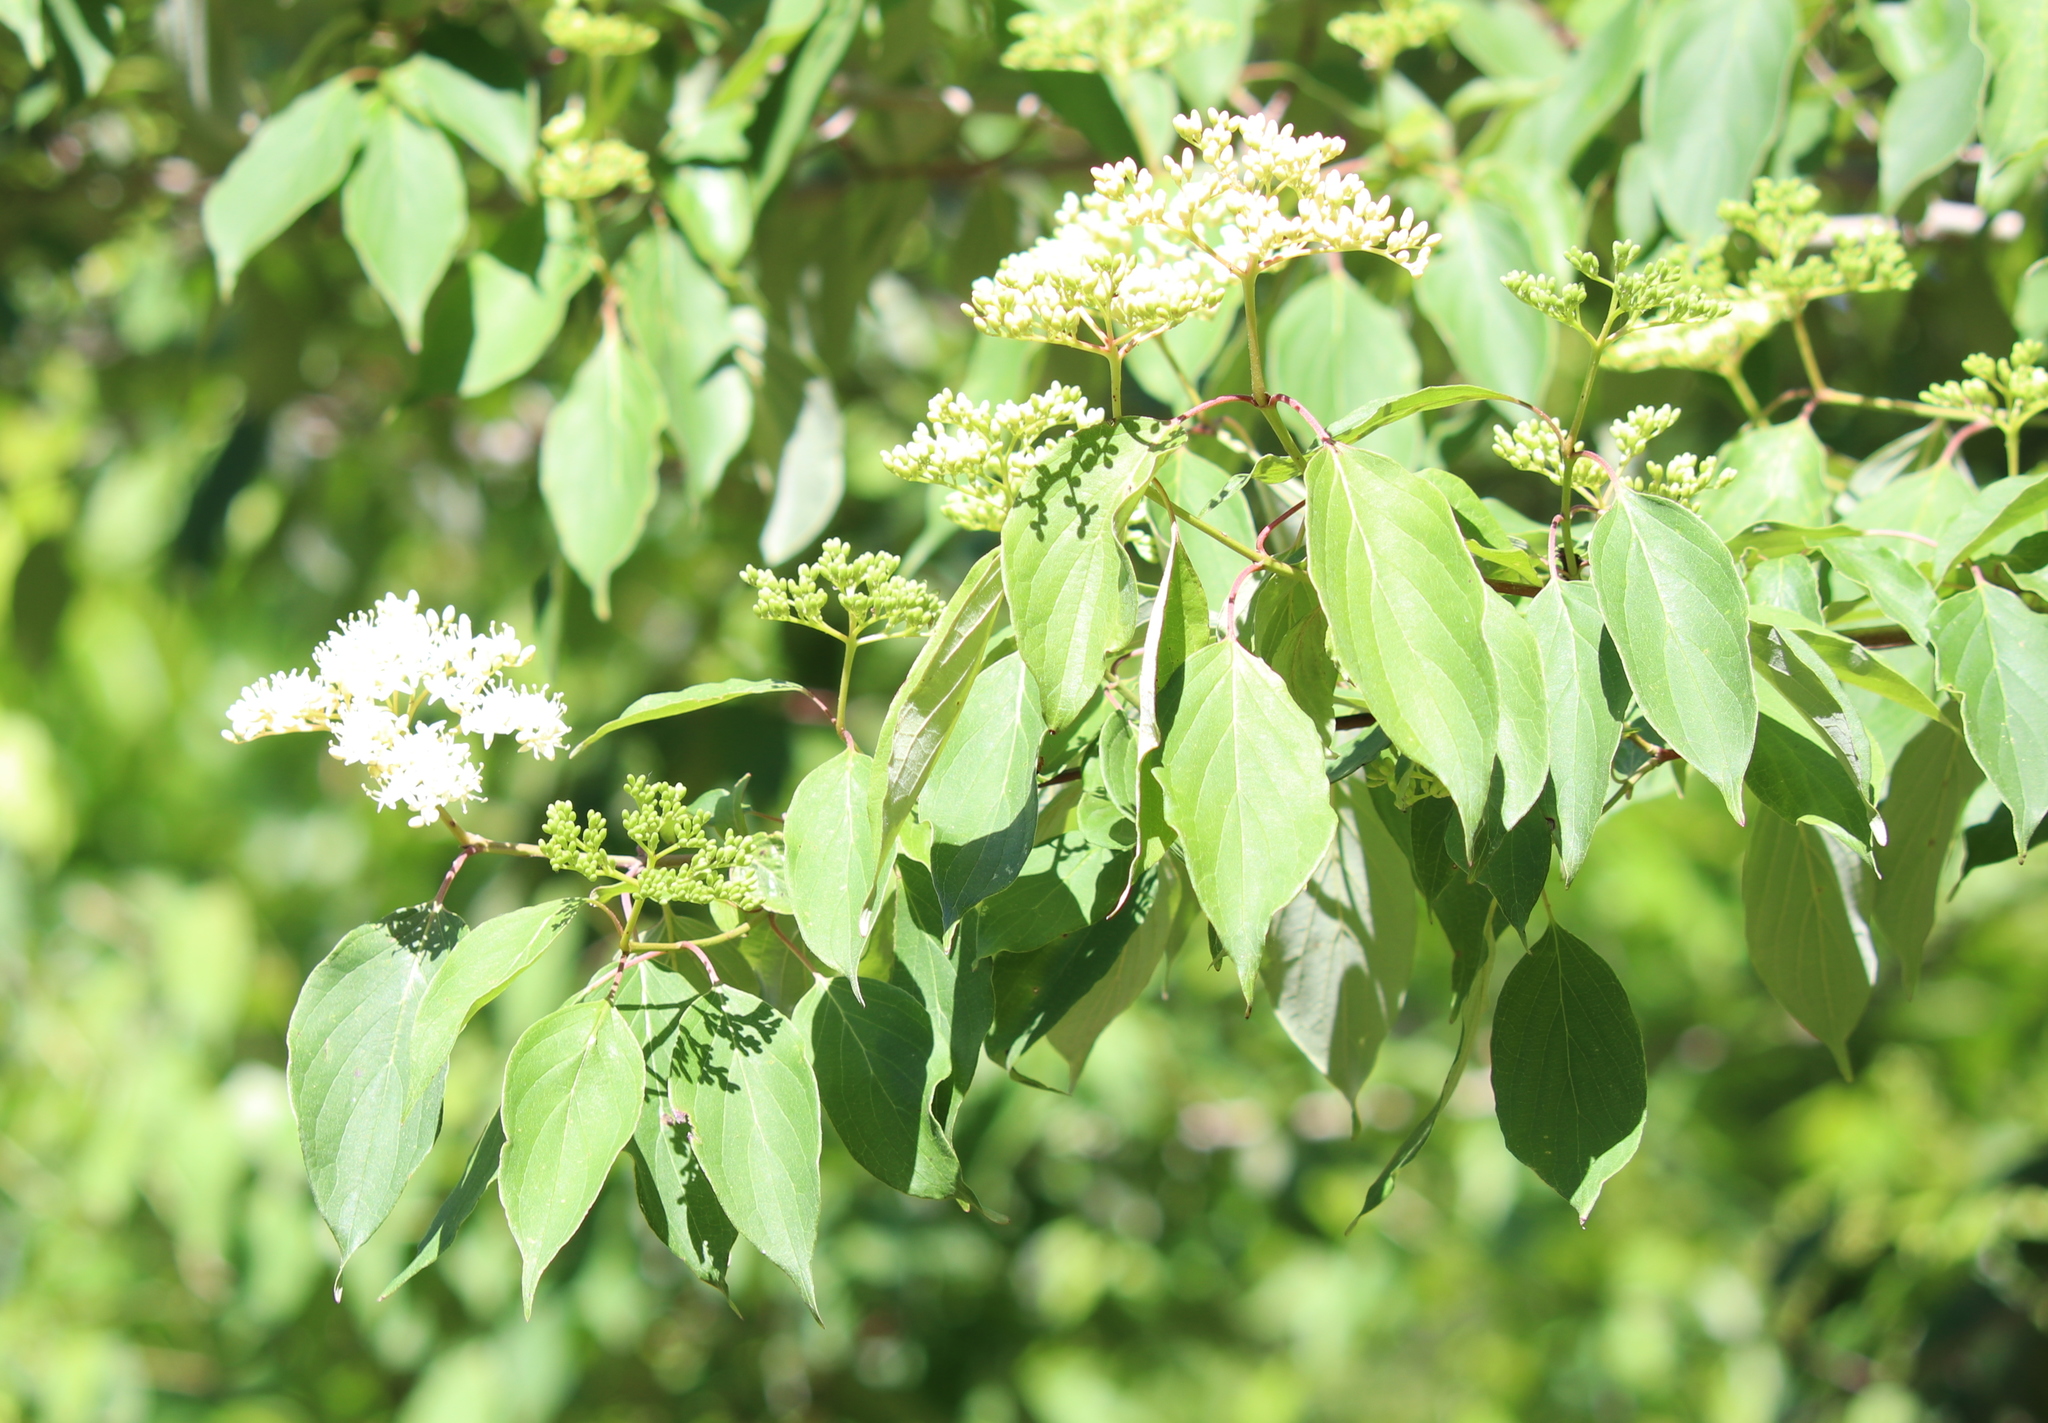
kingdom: Plantae
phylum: Tracheophyta
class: Magnoliopsida
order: Cornales
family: Cornaceae
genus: Cornus
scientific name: Cornus drummondii
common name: Rough-leaf dogwood
